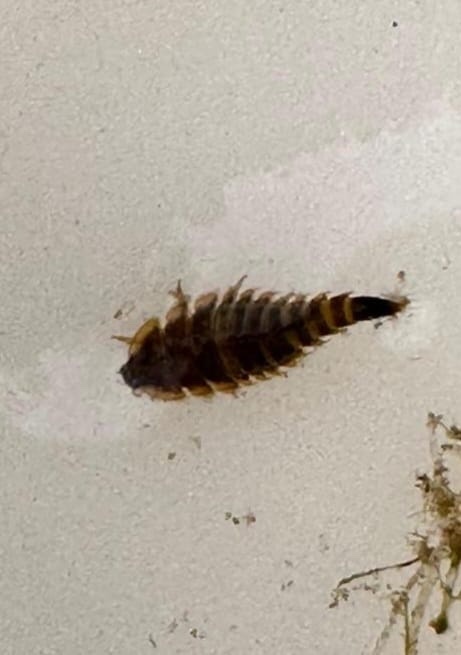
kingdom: Animalia
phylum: Arthropoda
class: Insecta
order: Coleoptera
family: Elmidae
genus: Elmis
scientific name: Elmis aenea
